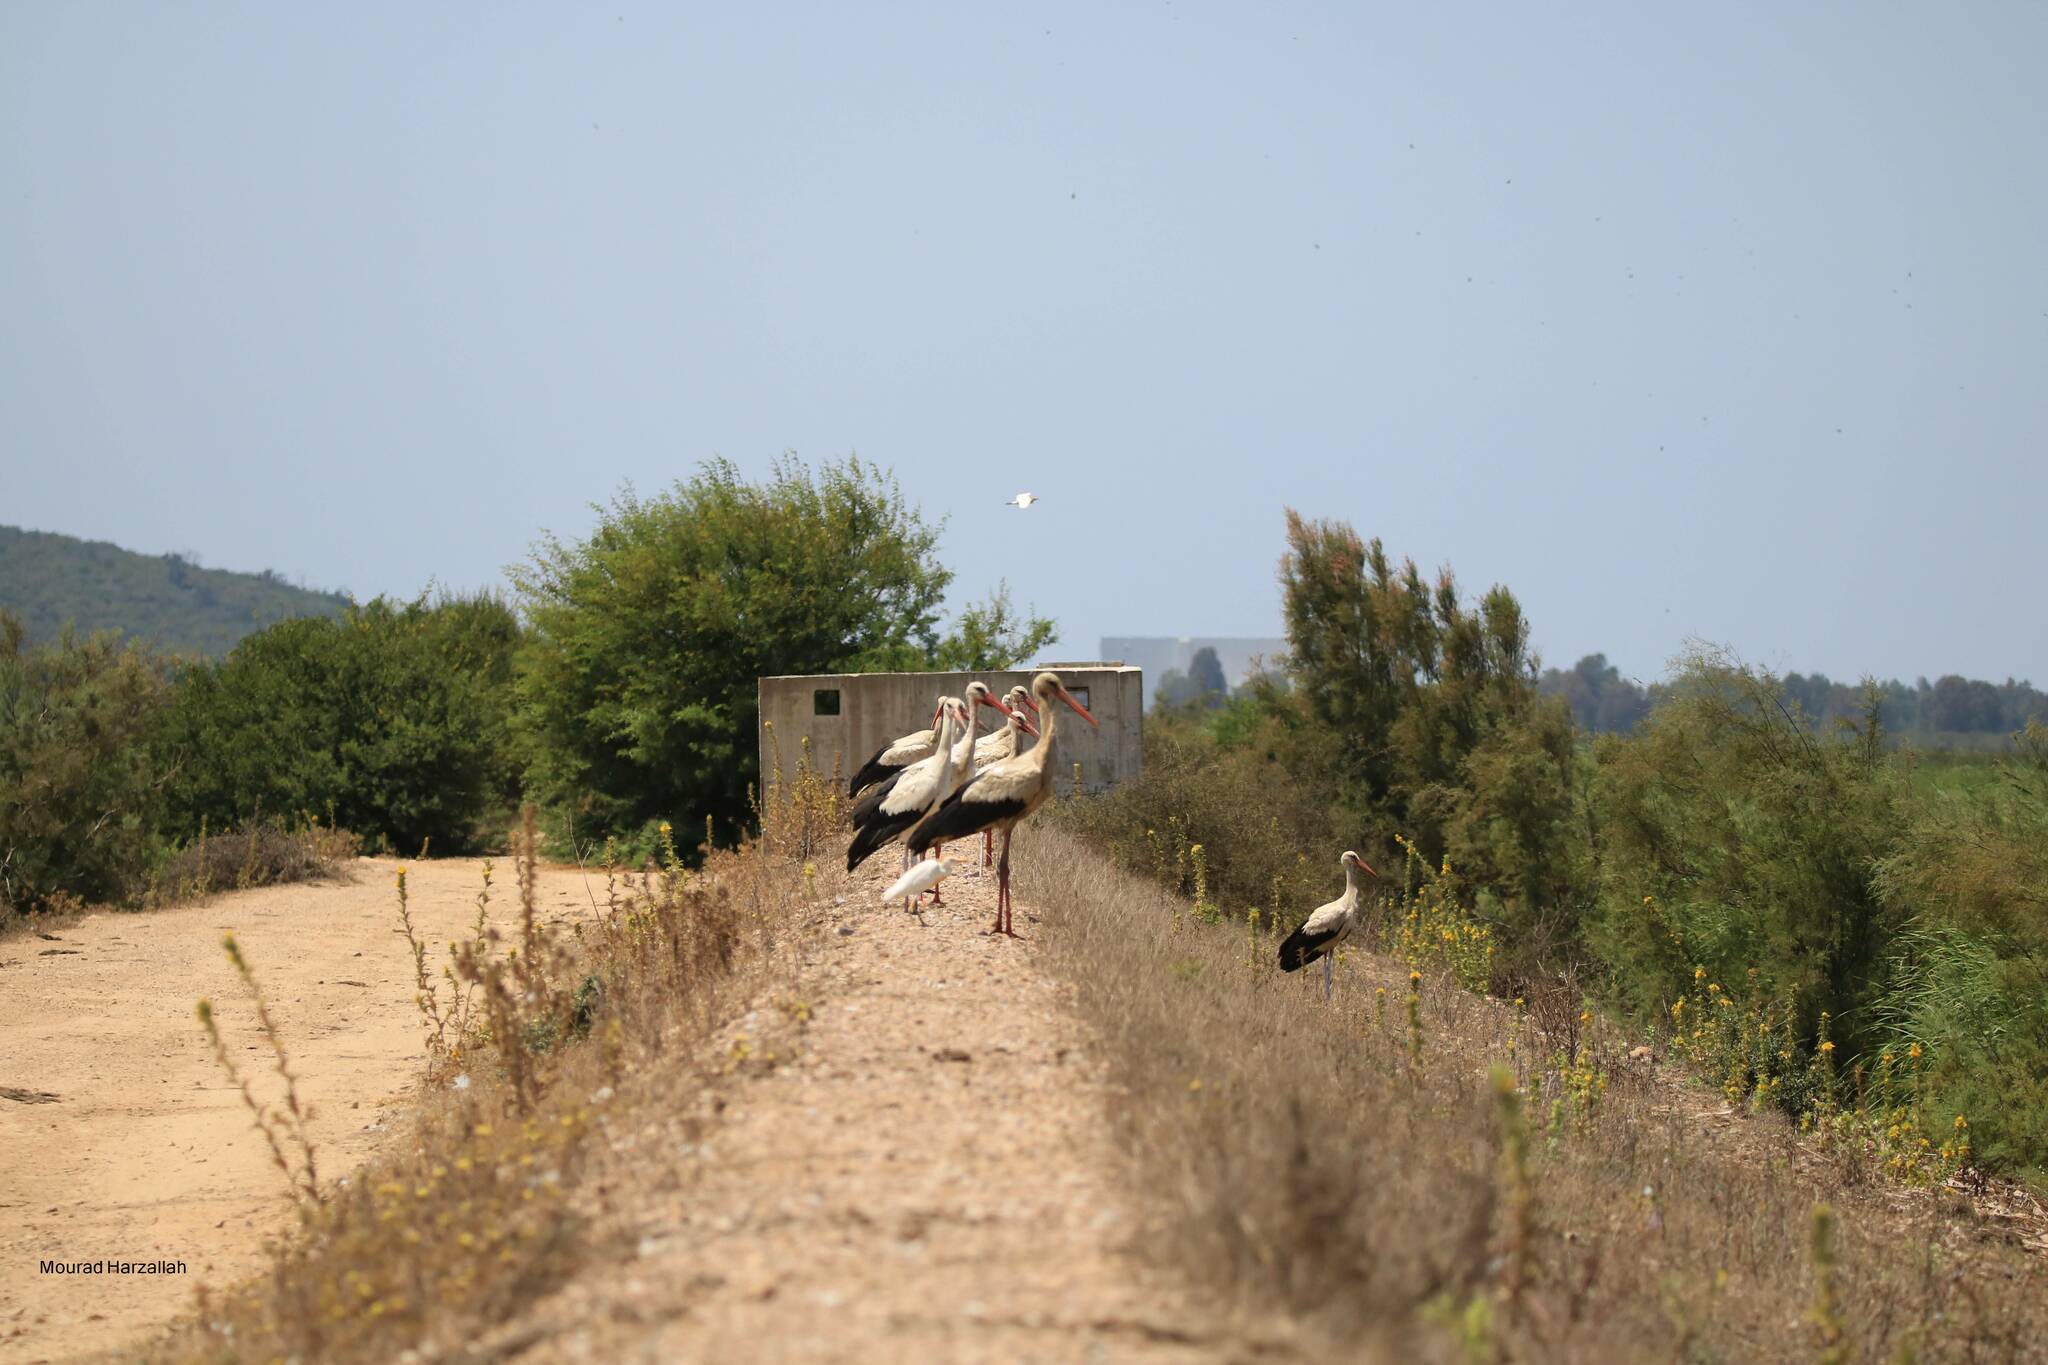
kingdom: Animalia
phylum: Chordata
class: Aves
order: Ciconiiformes
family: Ciconiidae
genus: Ciconia
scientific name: Ciconia ciconia
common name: White stork
